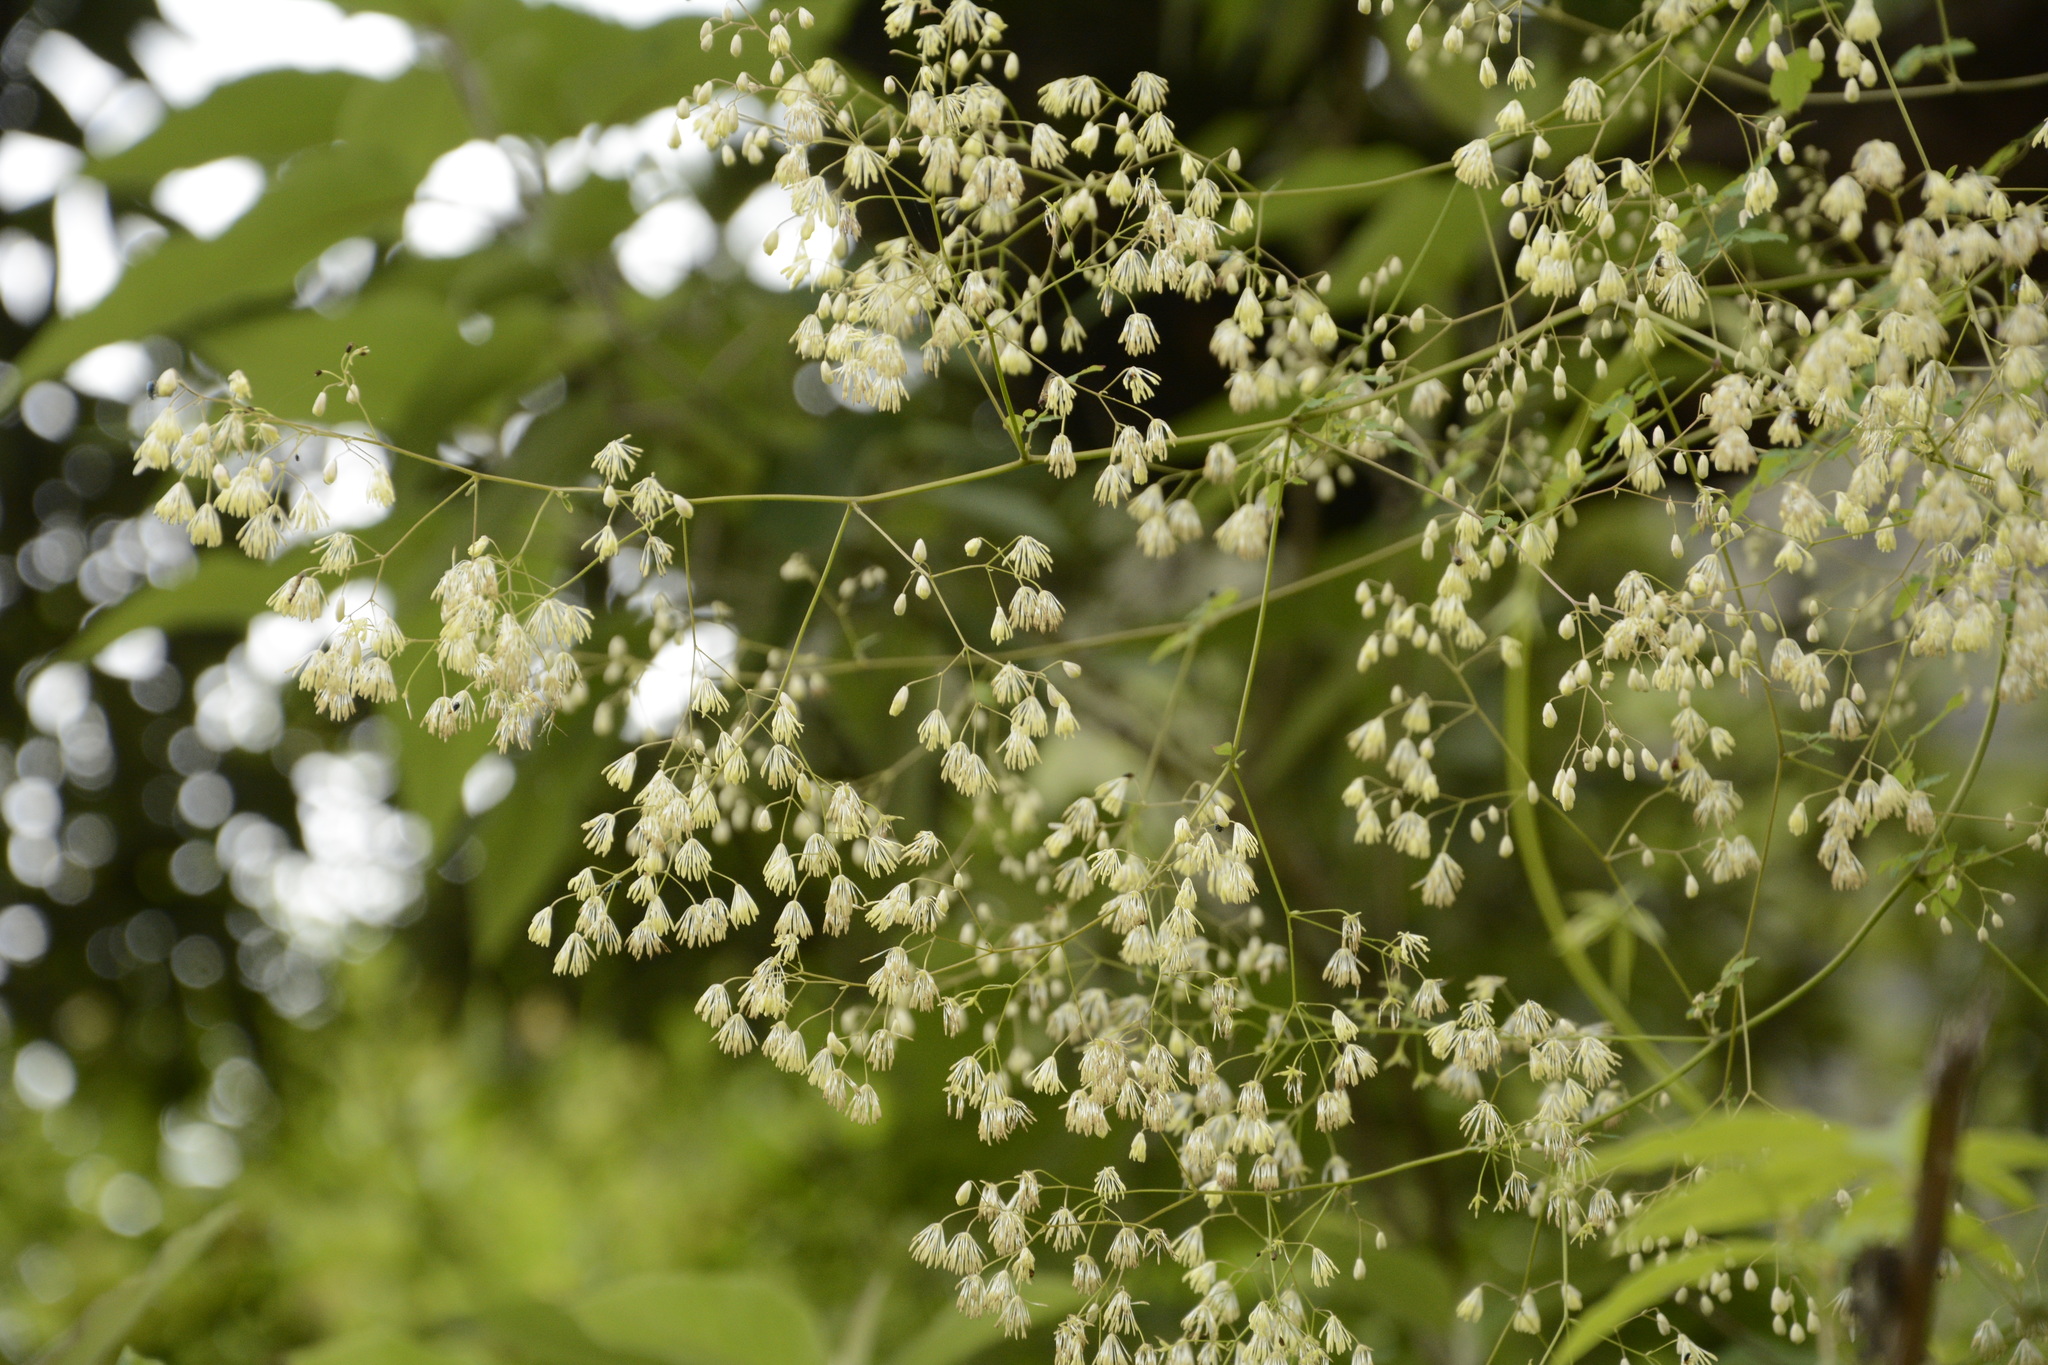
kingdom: Plantae
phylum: Tracheophyta
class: Magnoliopsida
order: Ranunculales
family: Ranunculaceae
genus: Thalictrum
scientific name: Thalictrum foliolosum
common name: Asian meadow-rue
